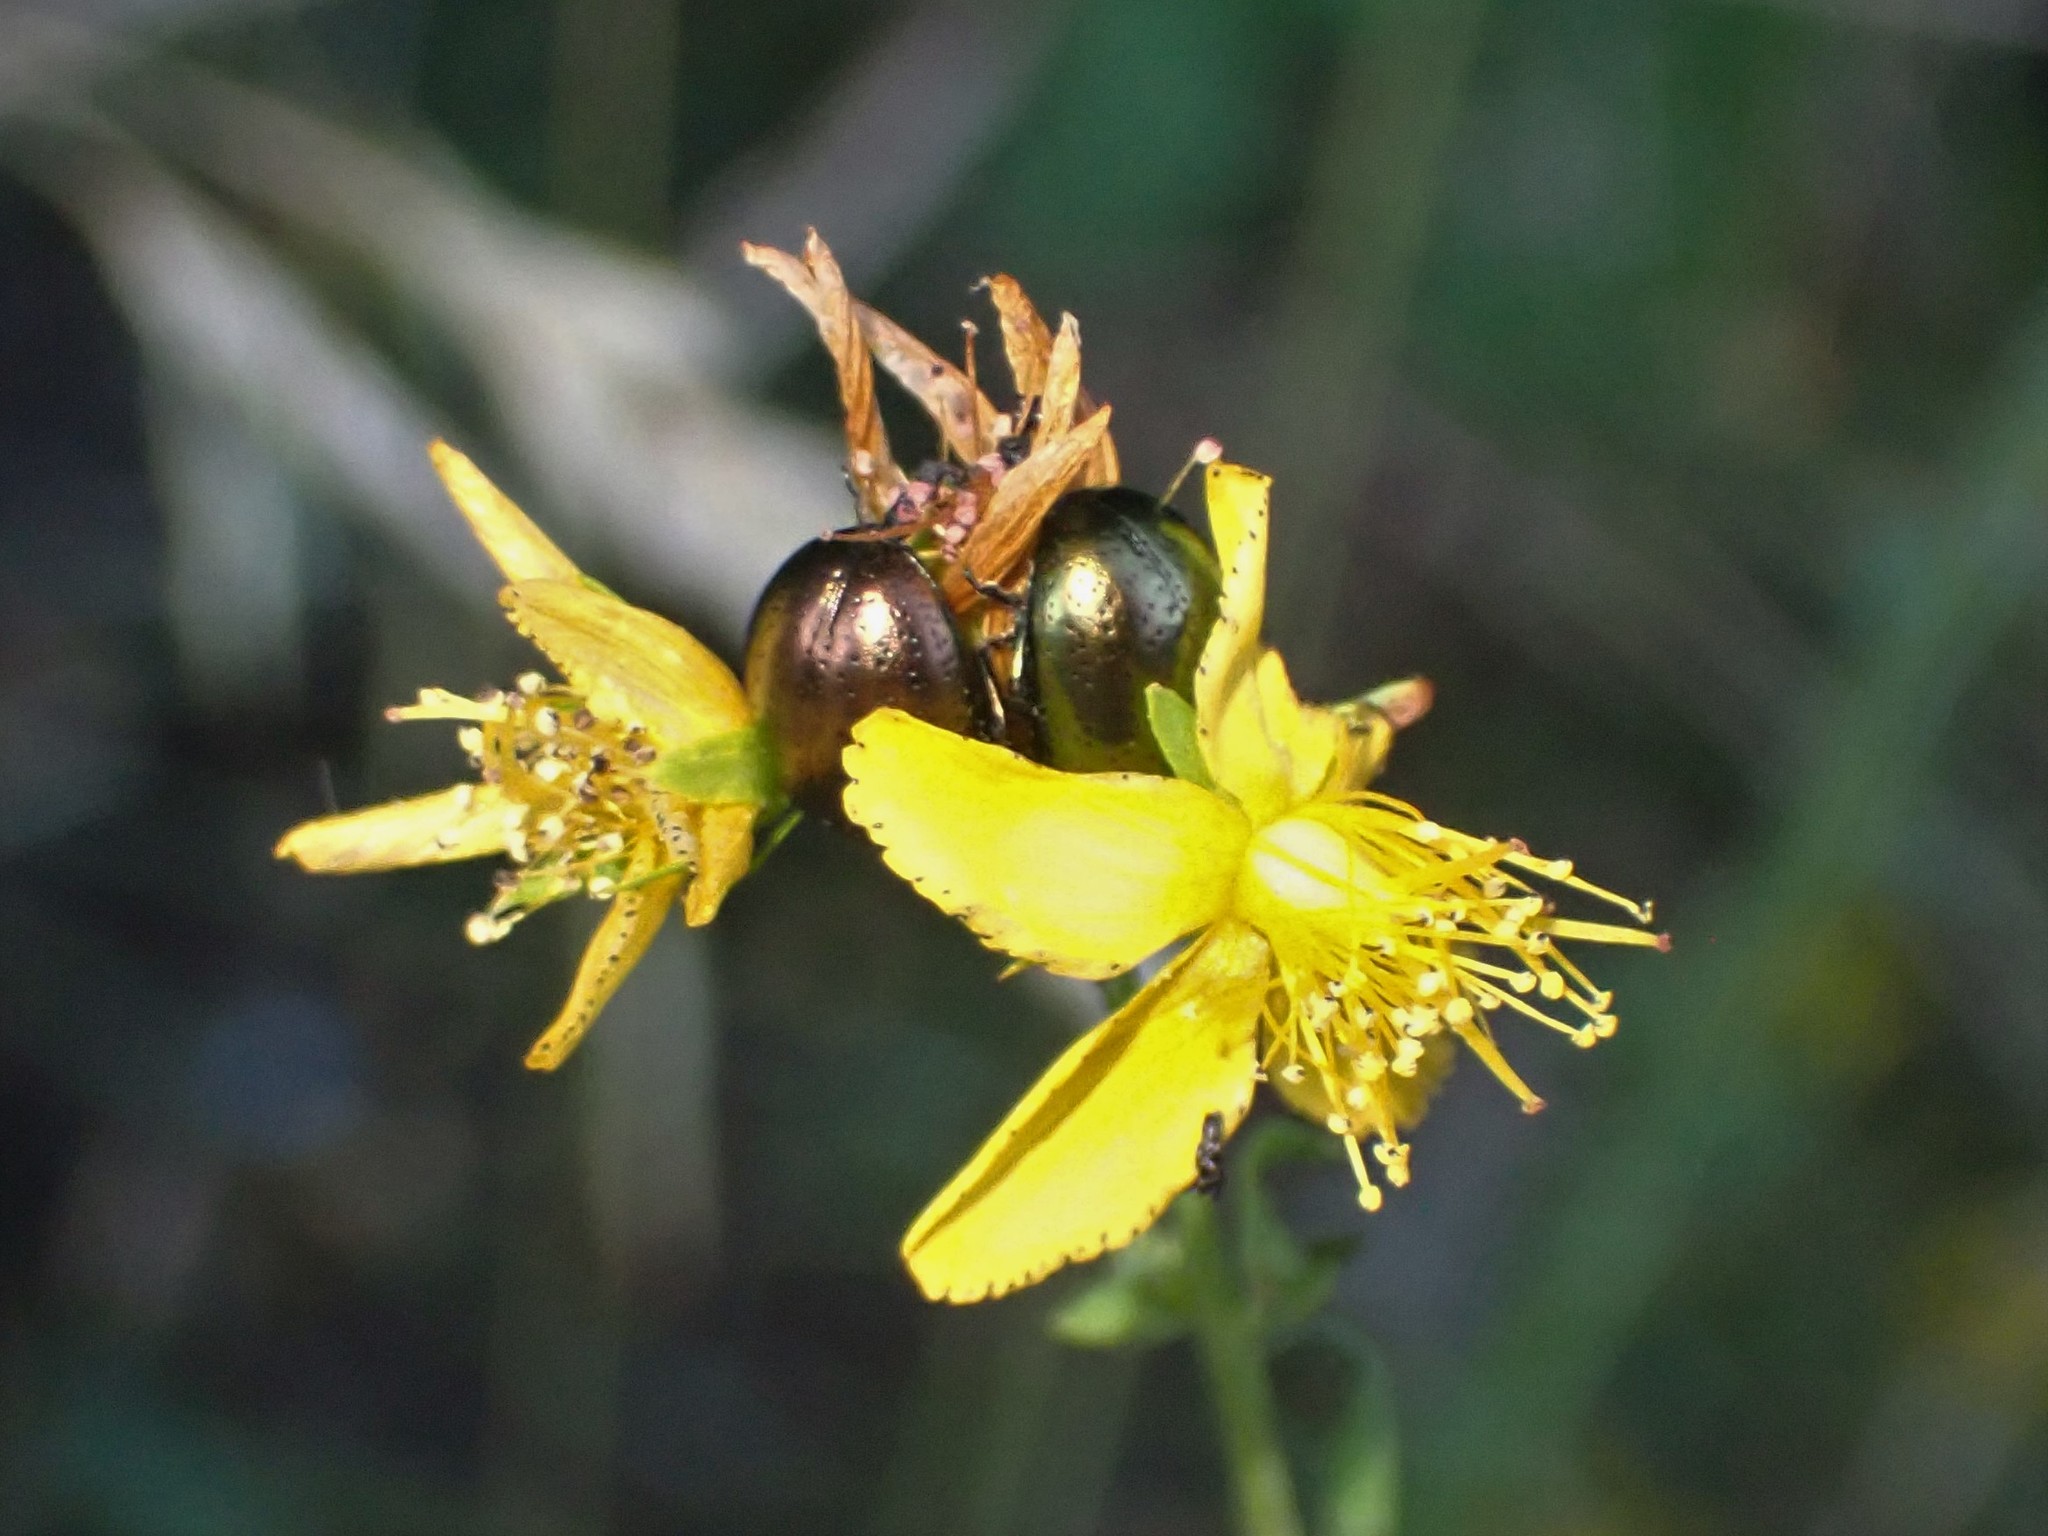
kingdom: Animalia
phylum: Arthropoda
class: Insecta
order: Coleoptera
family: Chrysomelidae
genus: Chrysolina
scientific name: Chrysolina hyperici
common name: St. johnswort beetle
